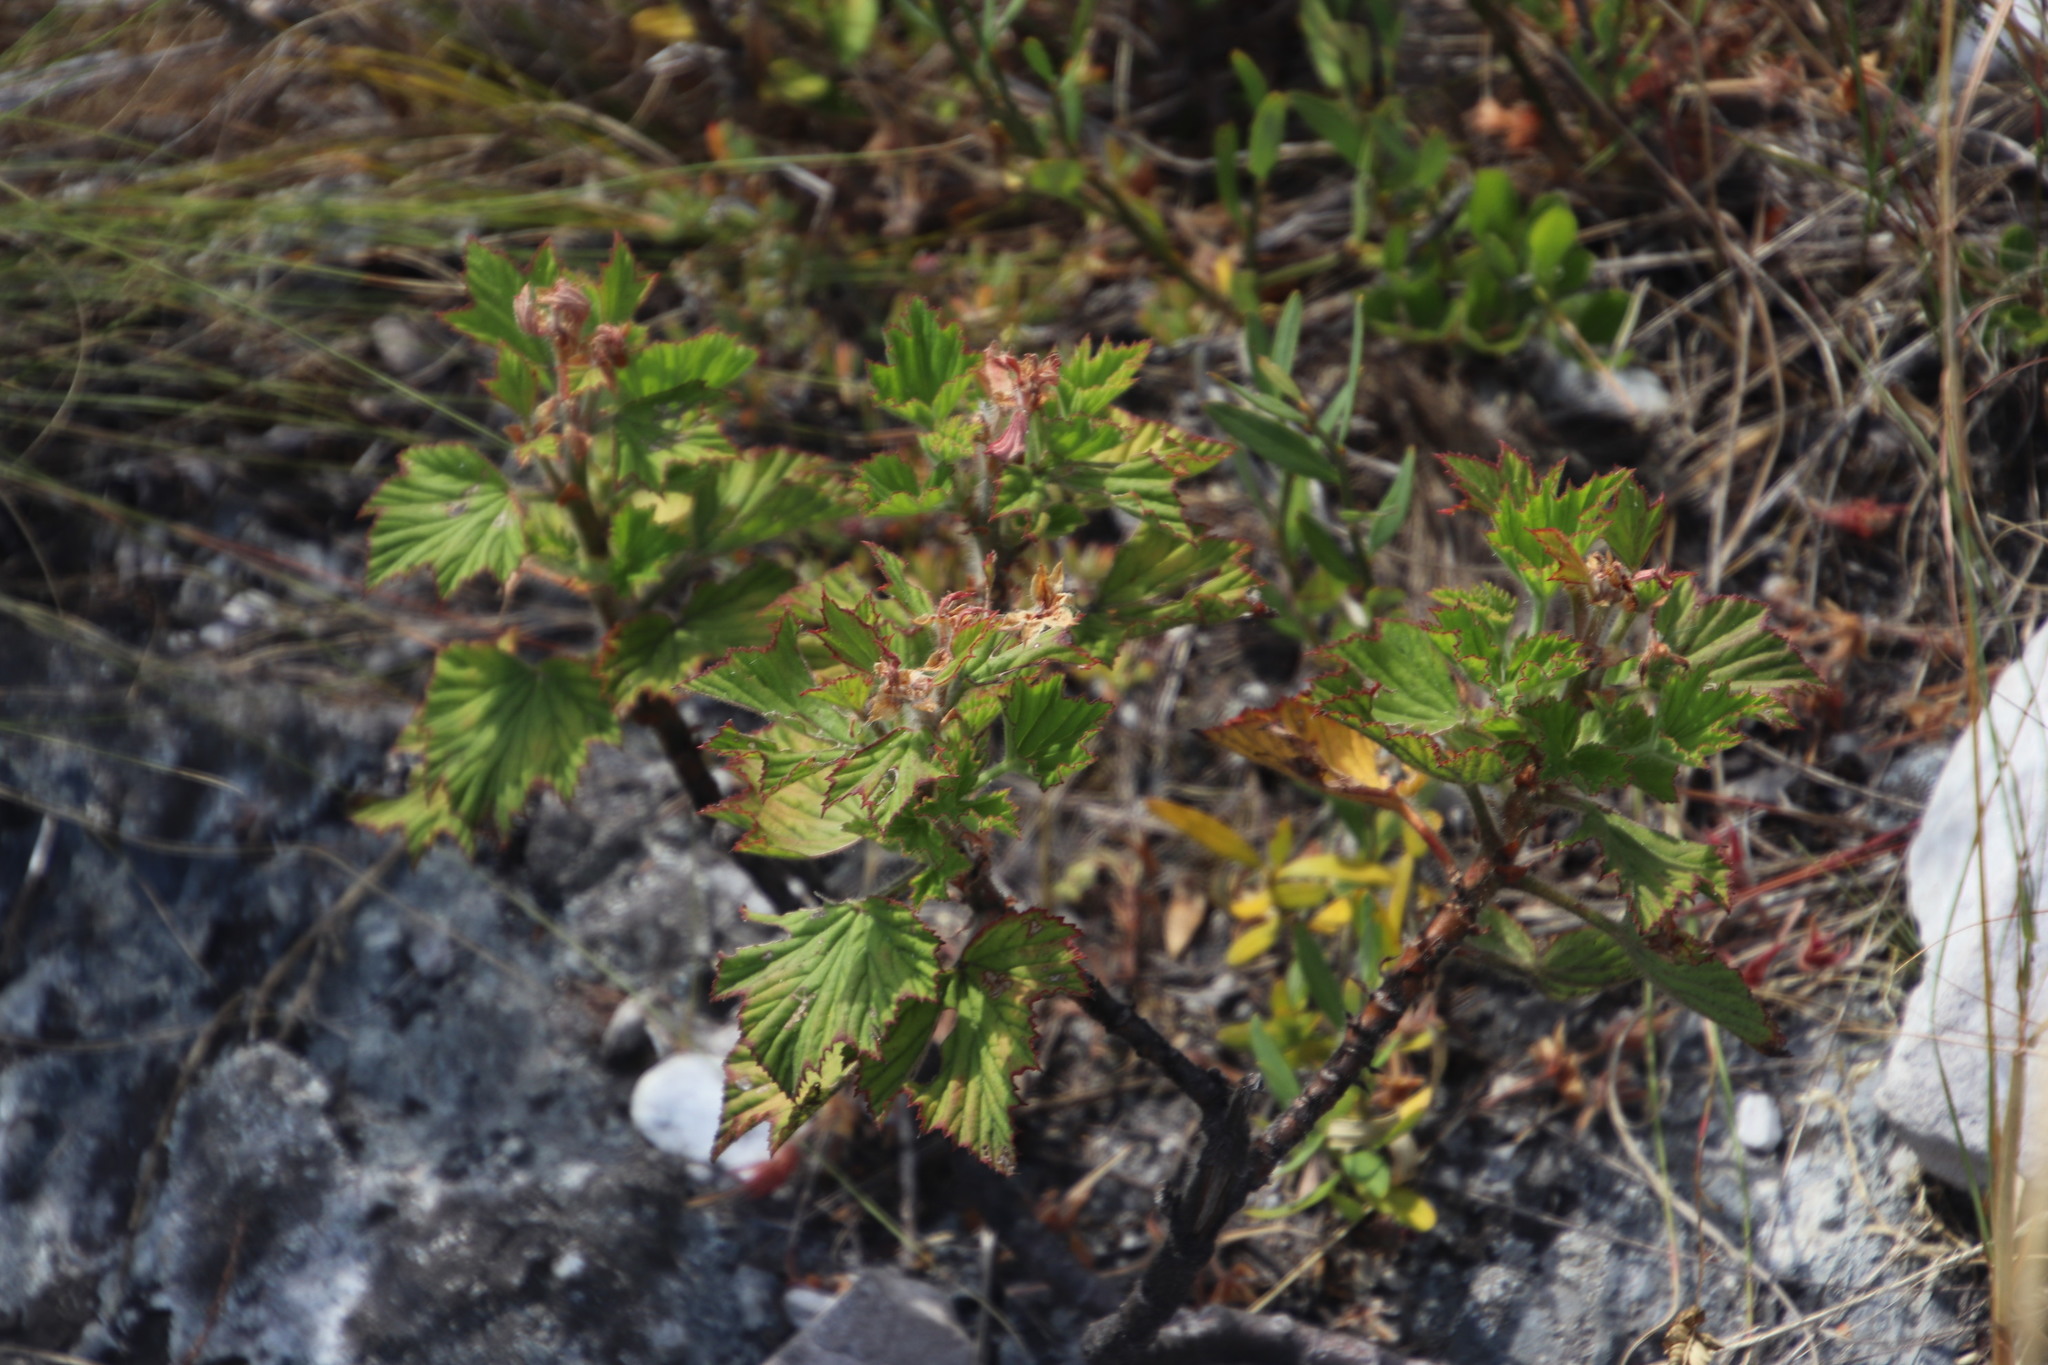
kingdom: Plantae
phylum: Tracheophyta
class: Magnoliopsida
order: Geraniales
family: Geraniaceae
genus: Pelargonium
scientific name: Pelargonium cucullatum
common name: Tree pelargonium
